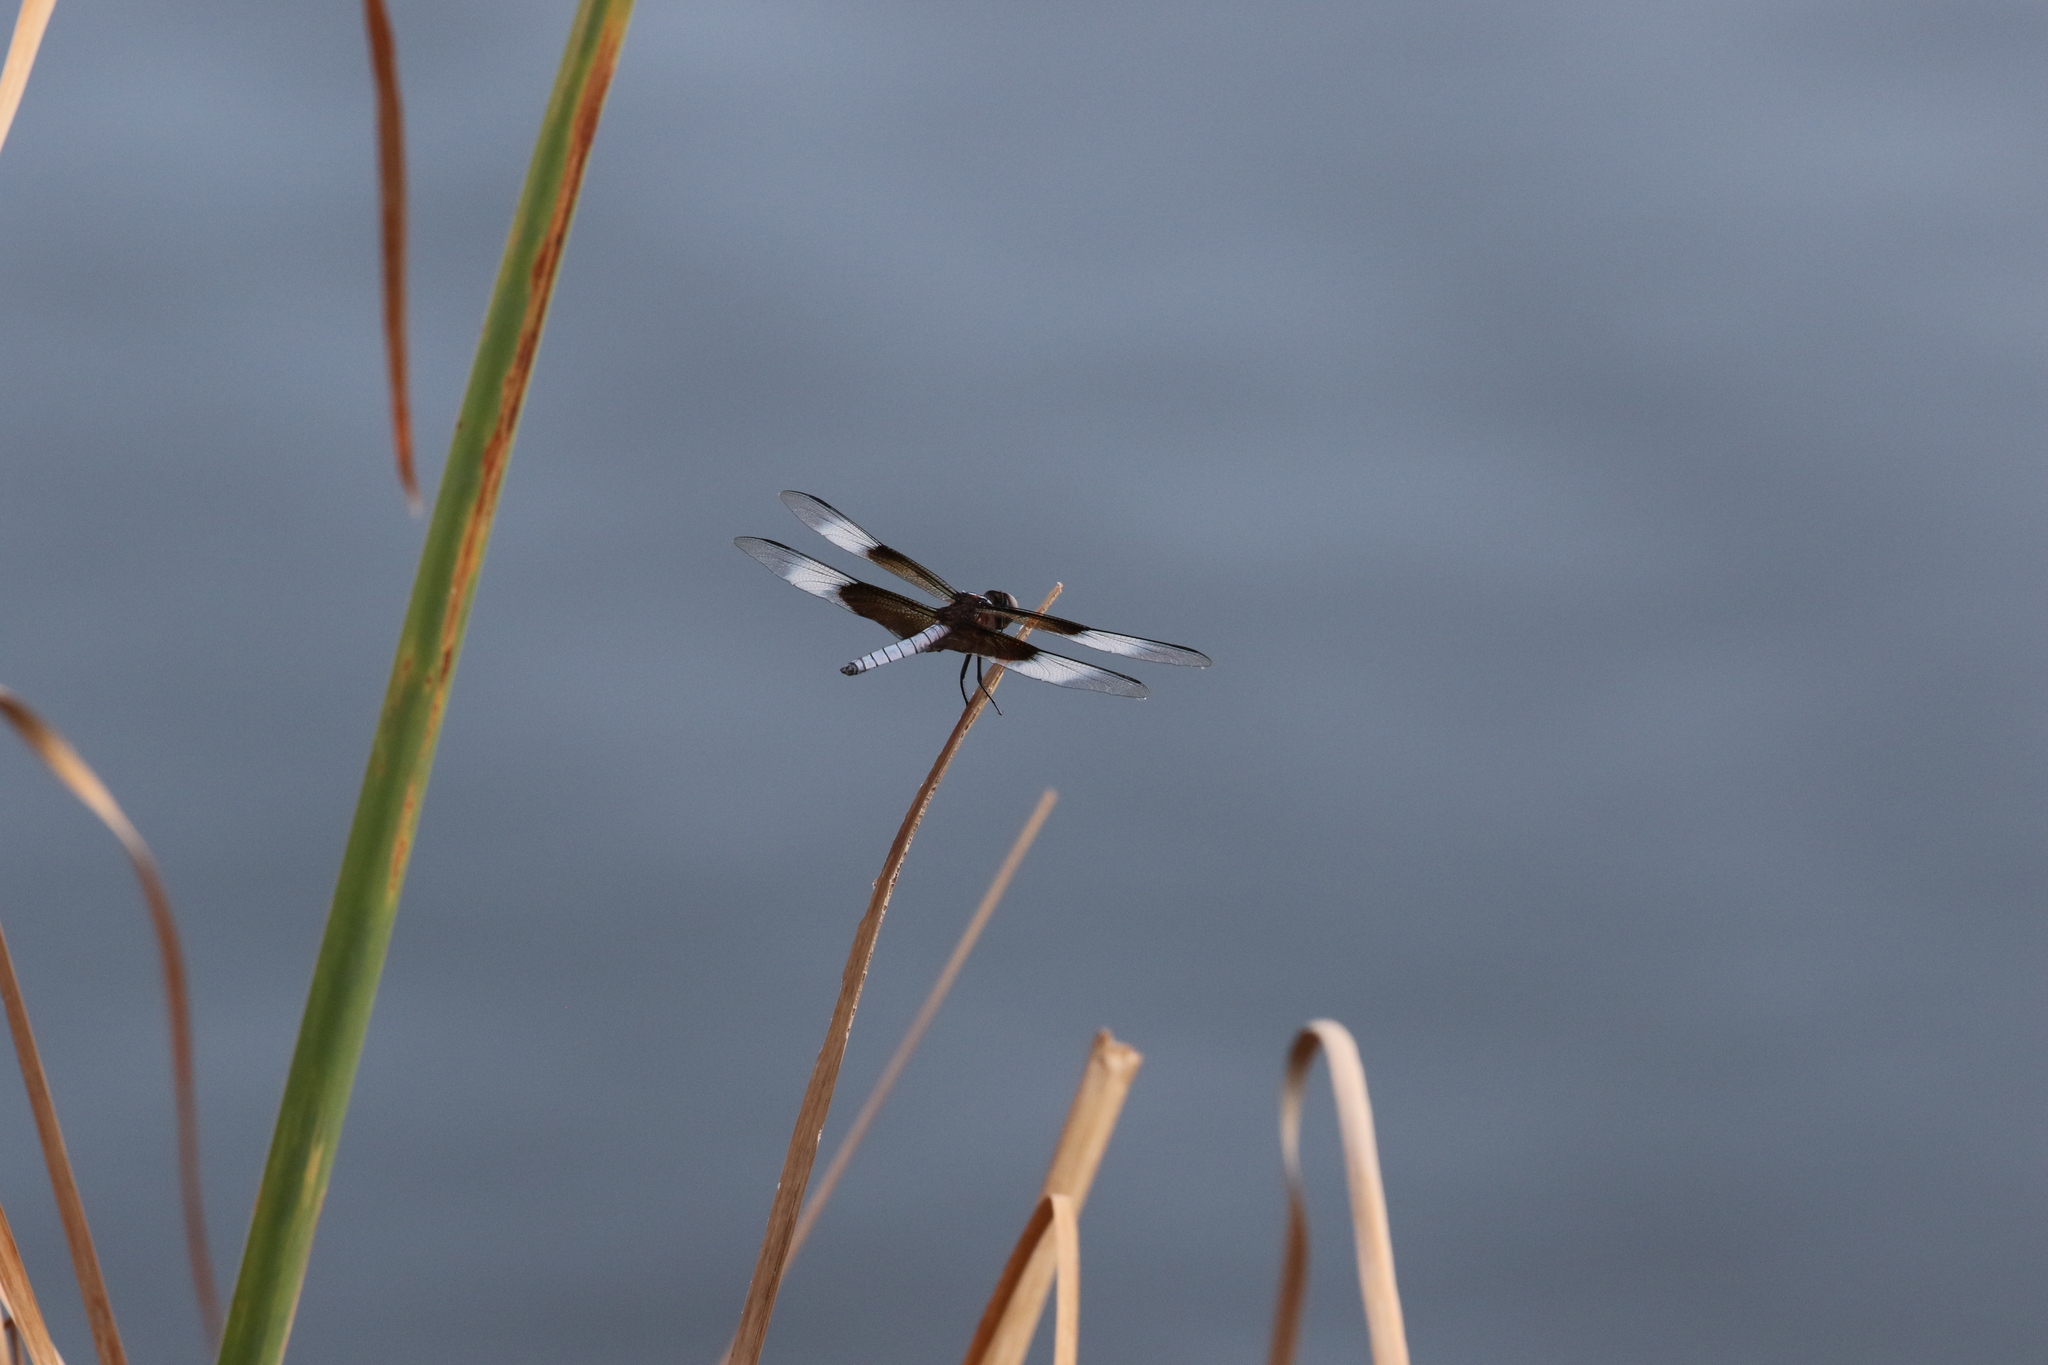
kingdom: Animalia
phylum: Arthropoda
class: Insecta
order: Odonata
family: Libellulidae
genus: Libellula
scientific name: Libellula luctuosa
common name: Widow skimmer
